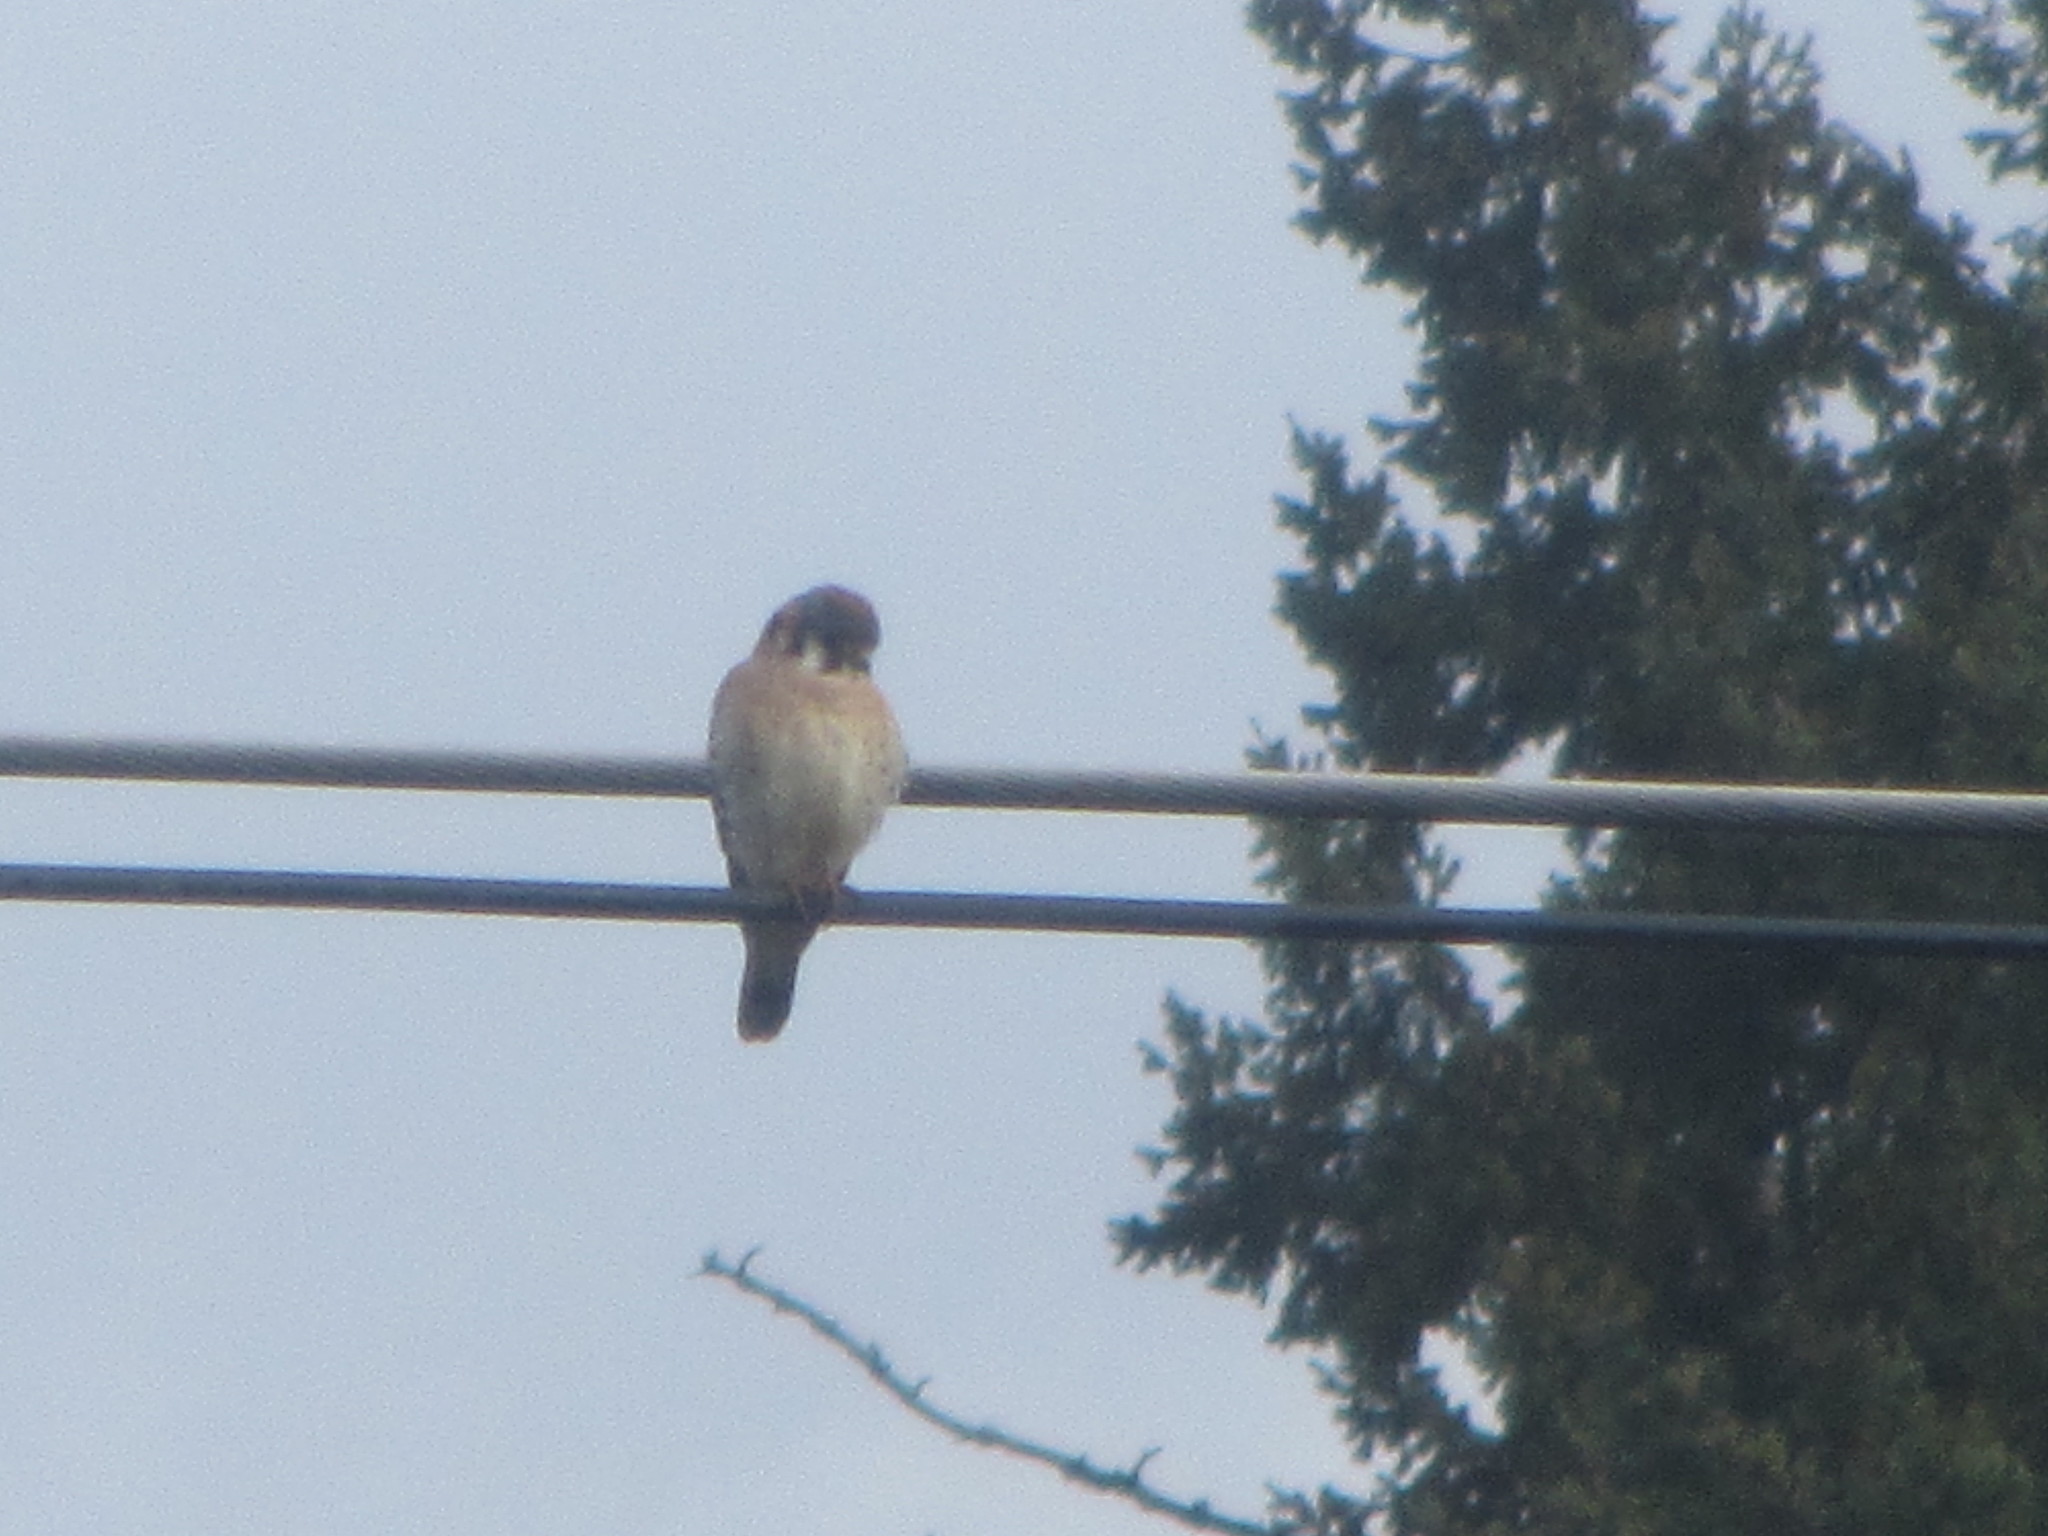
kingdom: Animalia
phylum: Chordata
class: Aves
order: Falconiformes
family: Falconidae
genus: Falco
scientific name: Falco sparverius
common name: American kestrel
